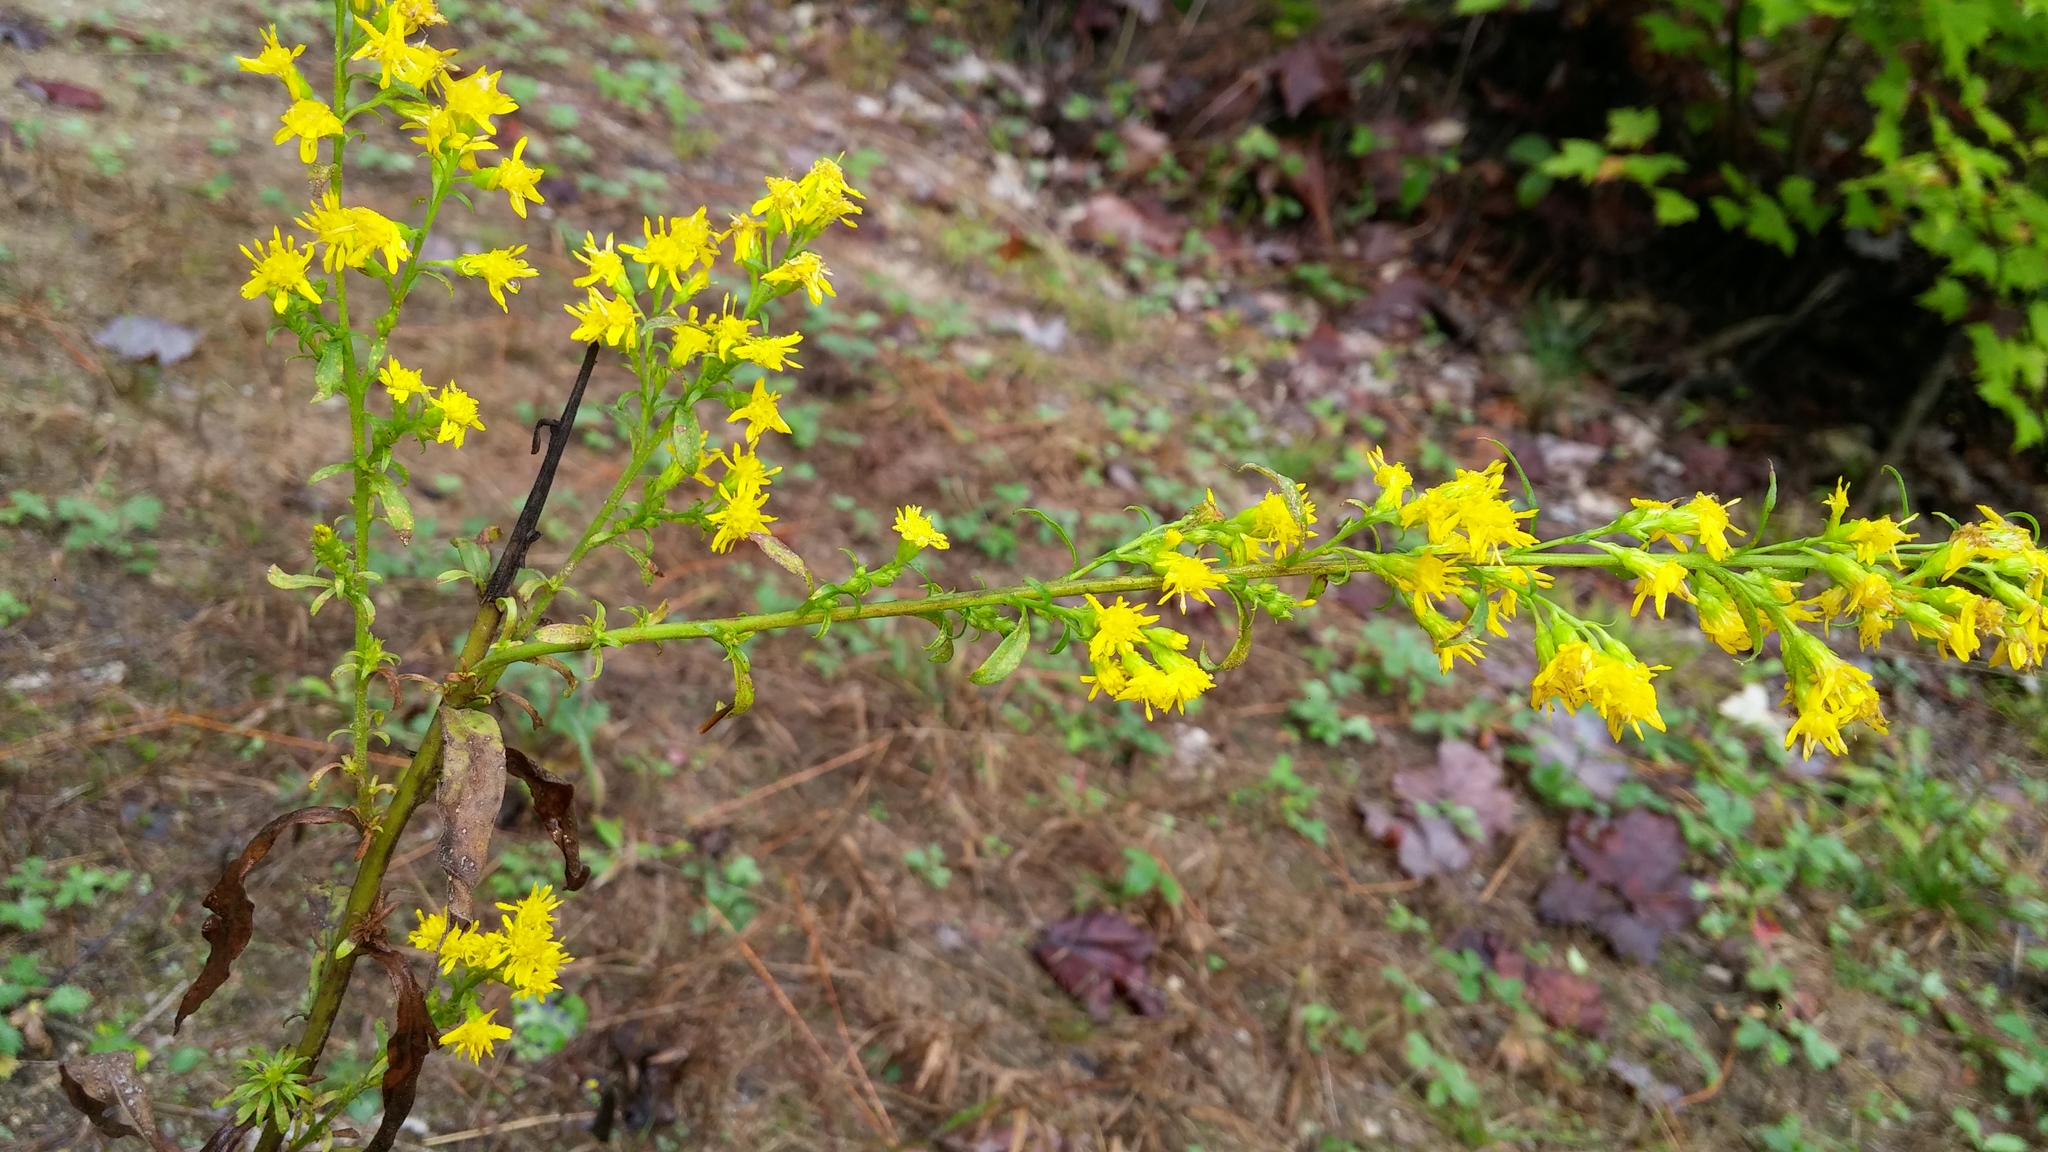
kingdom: Plantae
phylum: Tracheophyta
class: Magnoliopsida
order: Asterales
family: Asteraceae
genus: Solidago
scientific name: Solidago puberula
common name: Downy goldenrod
